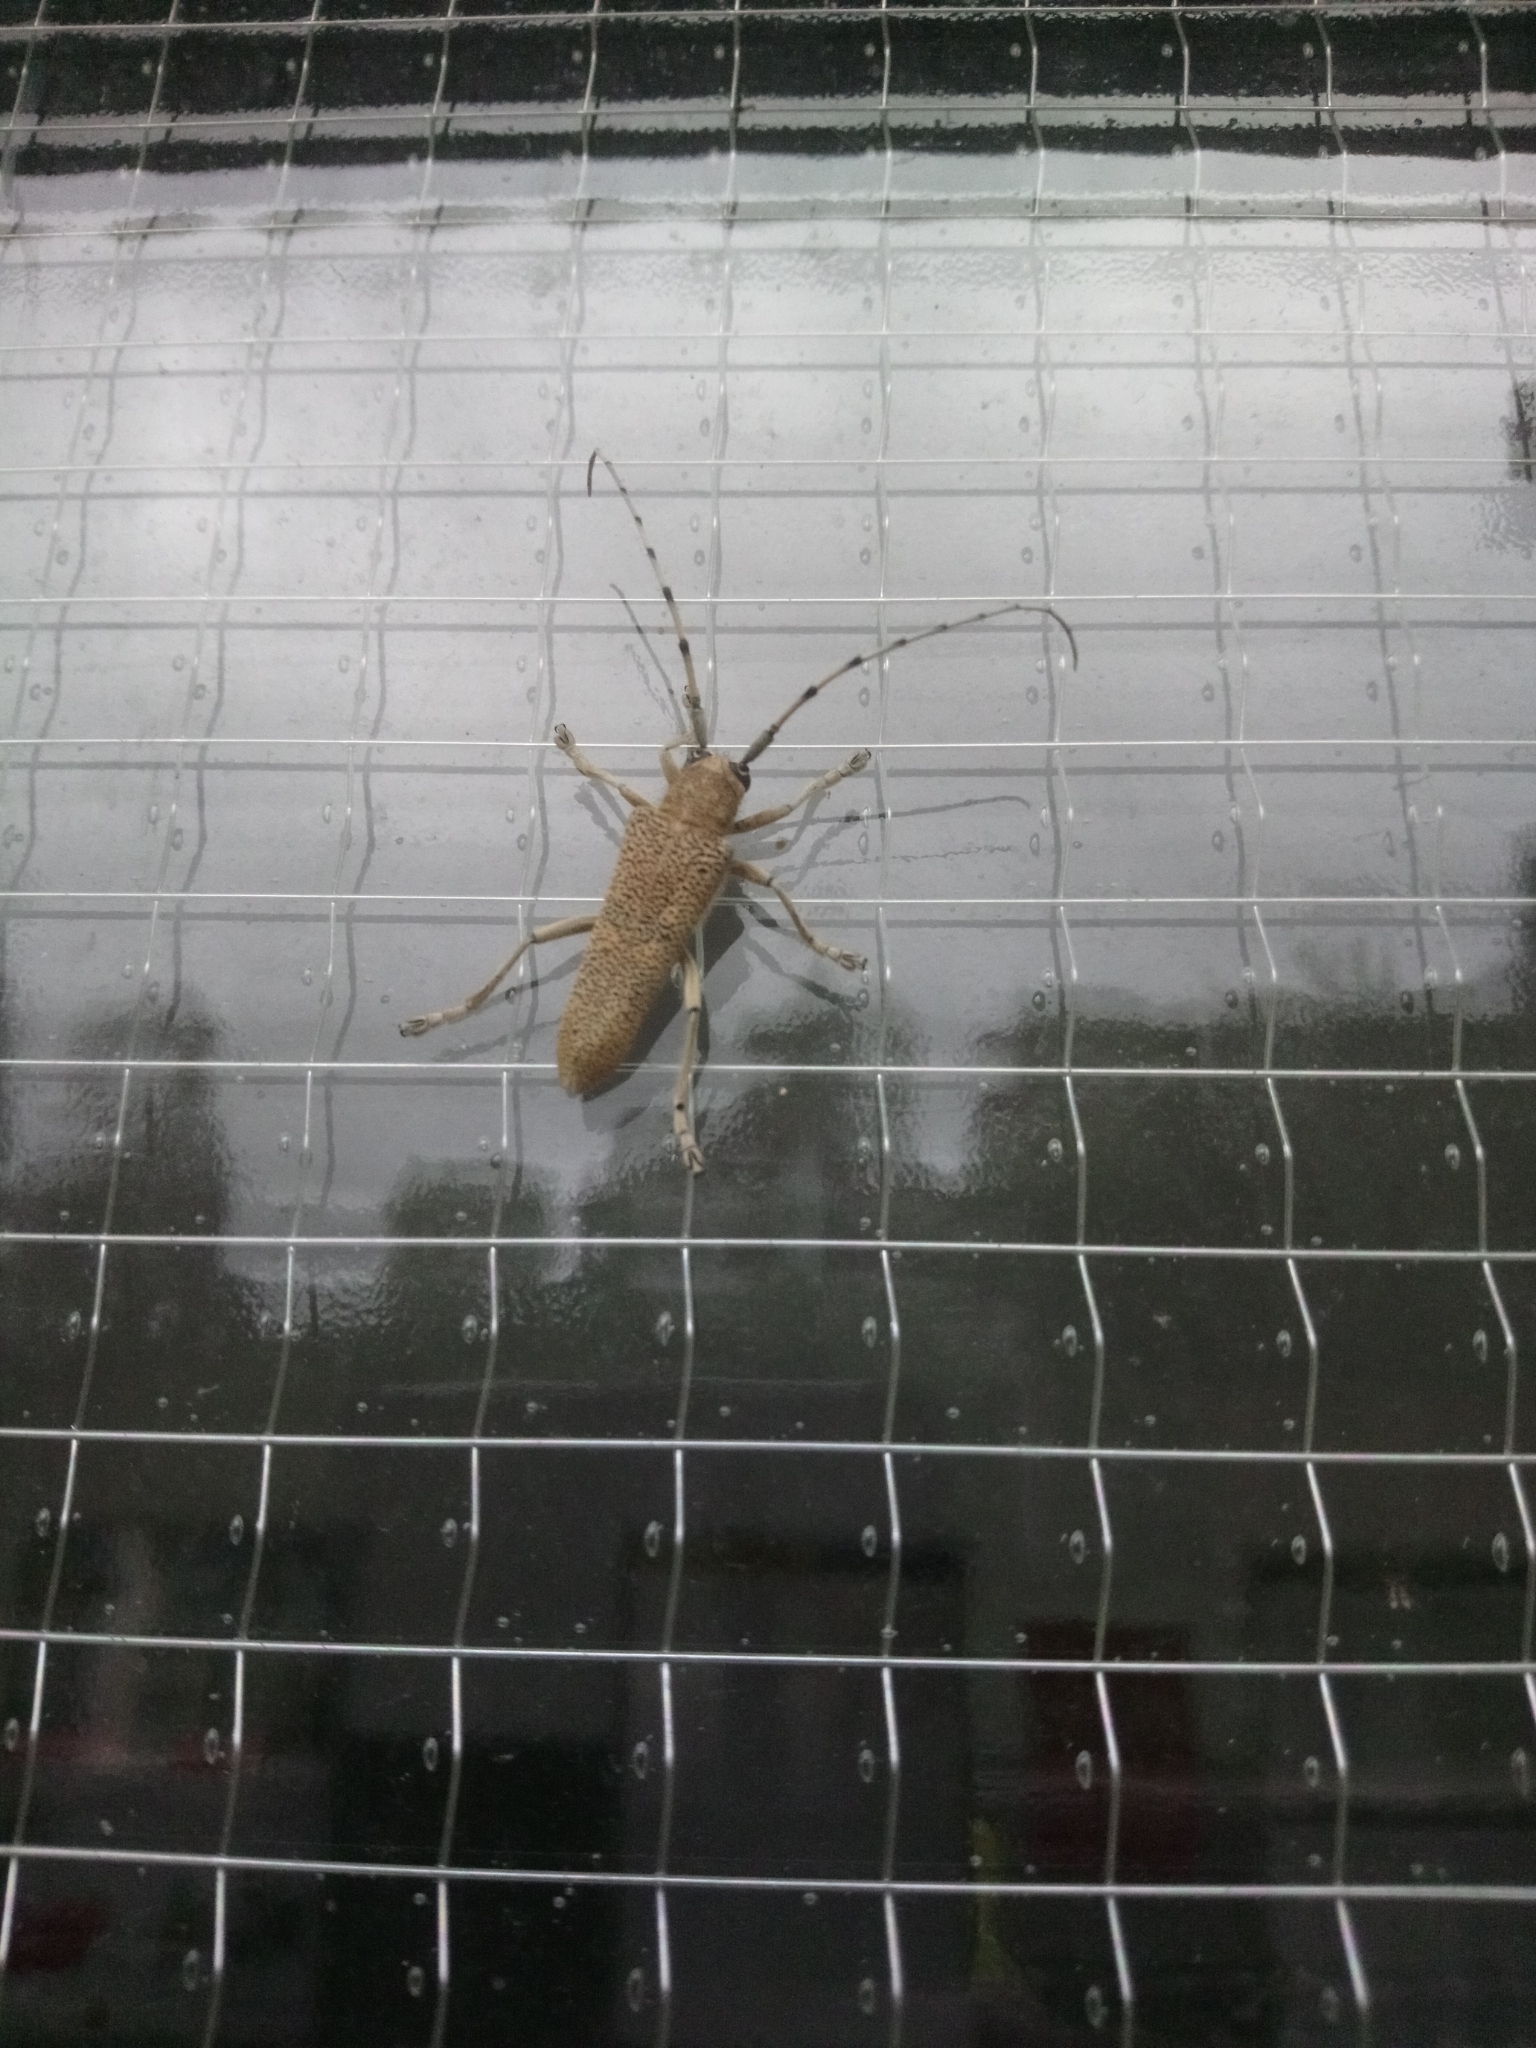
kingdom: Animalia
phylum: Arthropoda
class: Insecta
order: Coleoptera
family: Cerambycidae
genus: Saperda
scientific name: Saperda carcharias
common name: Poplar borer
